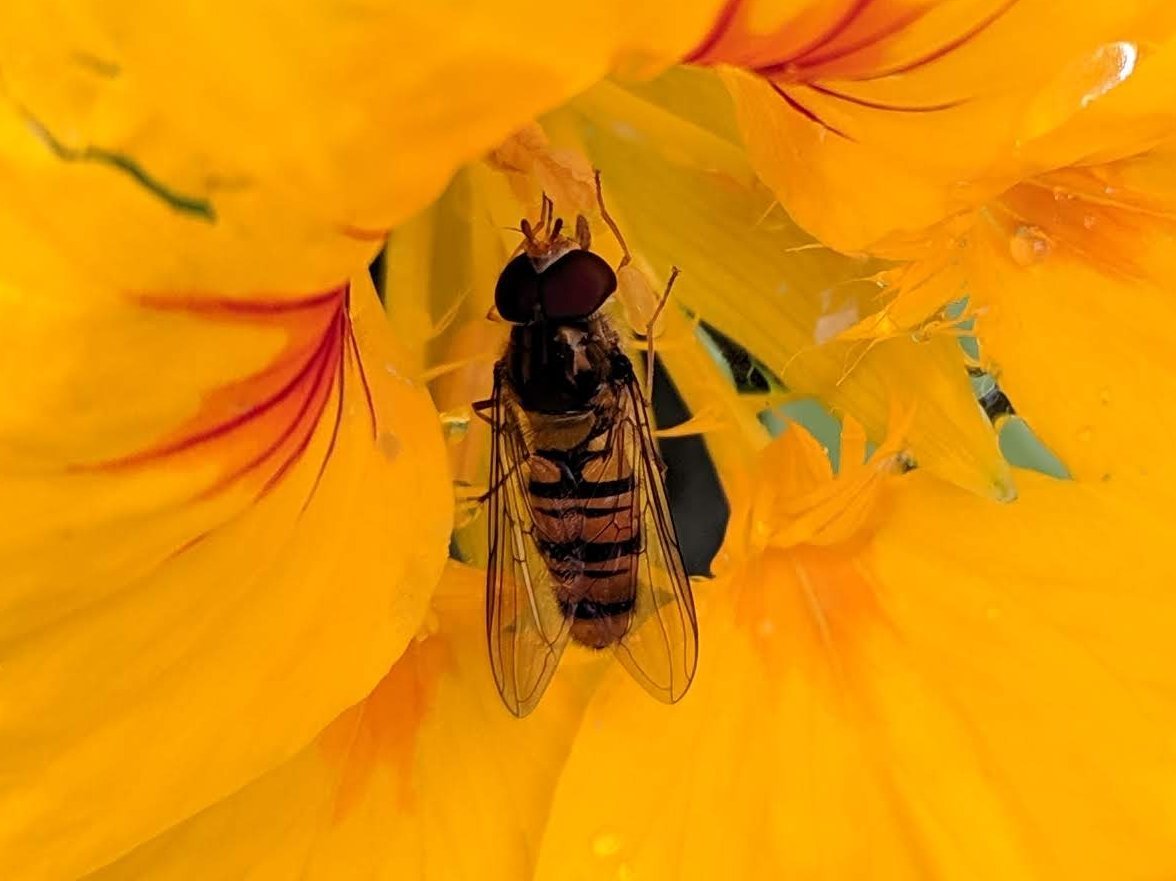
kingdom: Animalia
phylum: Arthropoda
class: Insecta
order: Diptera
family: Syrphidae
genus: Episyrphus
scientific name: Episyrphus balteatus
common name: Marmalade hoverfly
